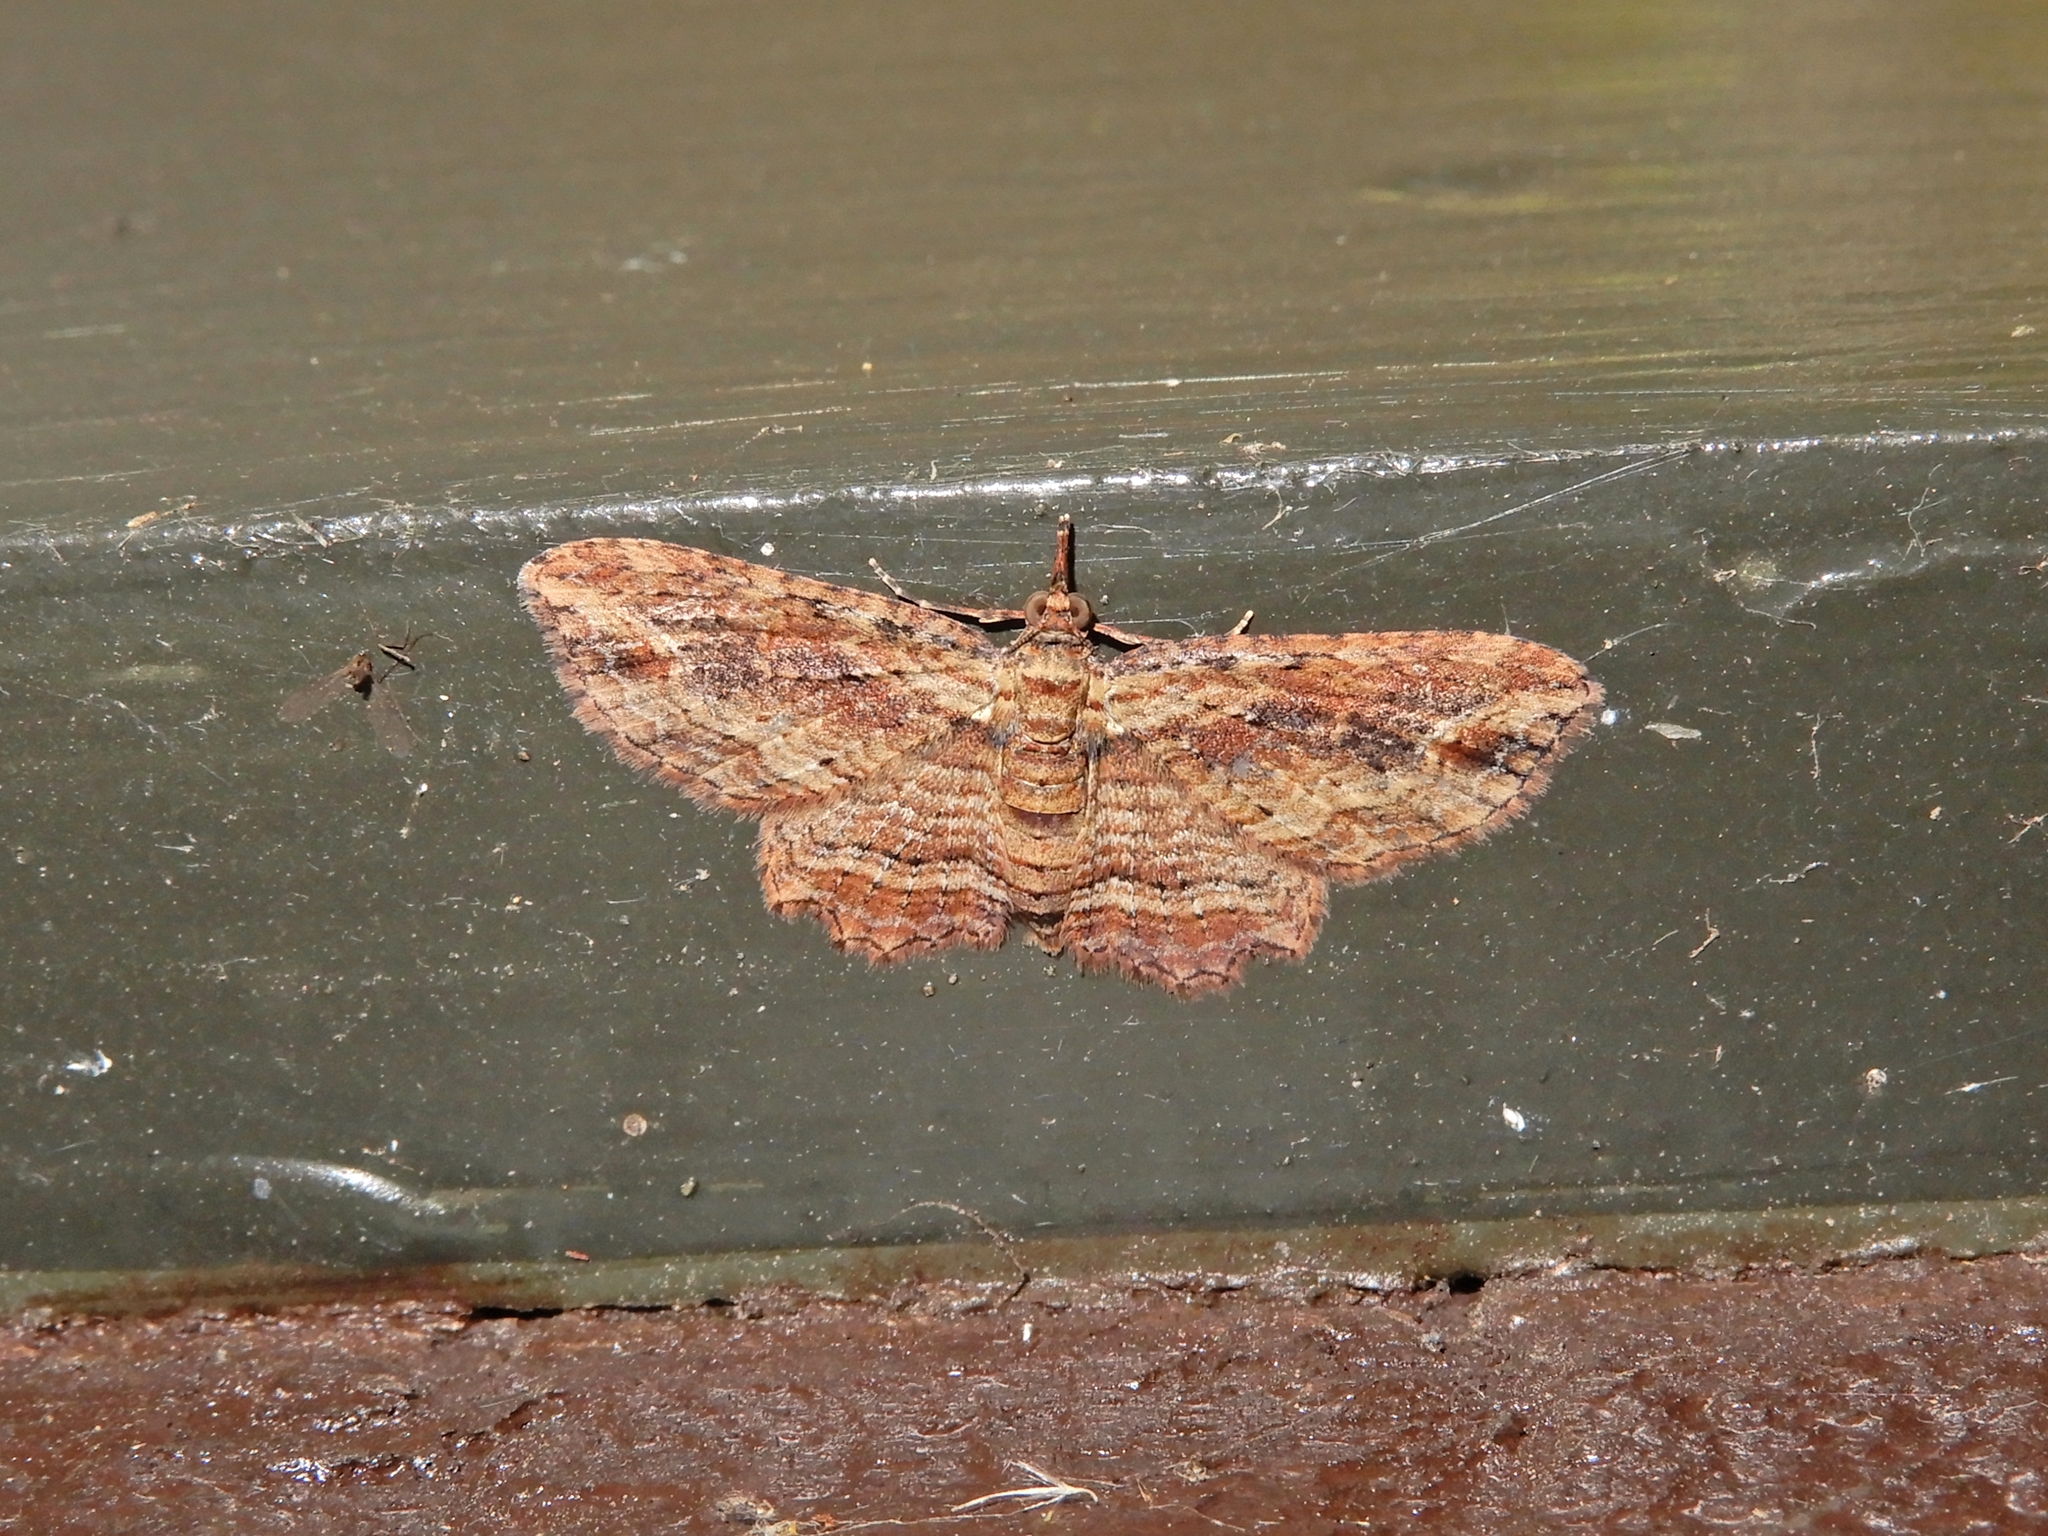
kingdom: Animalia
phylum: Arthropoda
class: Insecta
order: Lepidoptera
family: Geometridae
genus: Chloroclystis
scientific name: Chloroclystis filata
